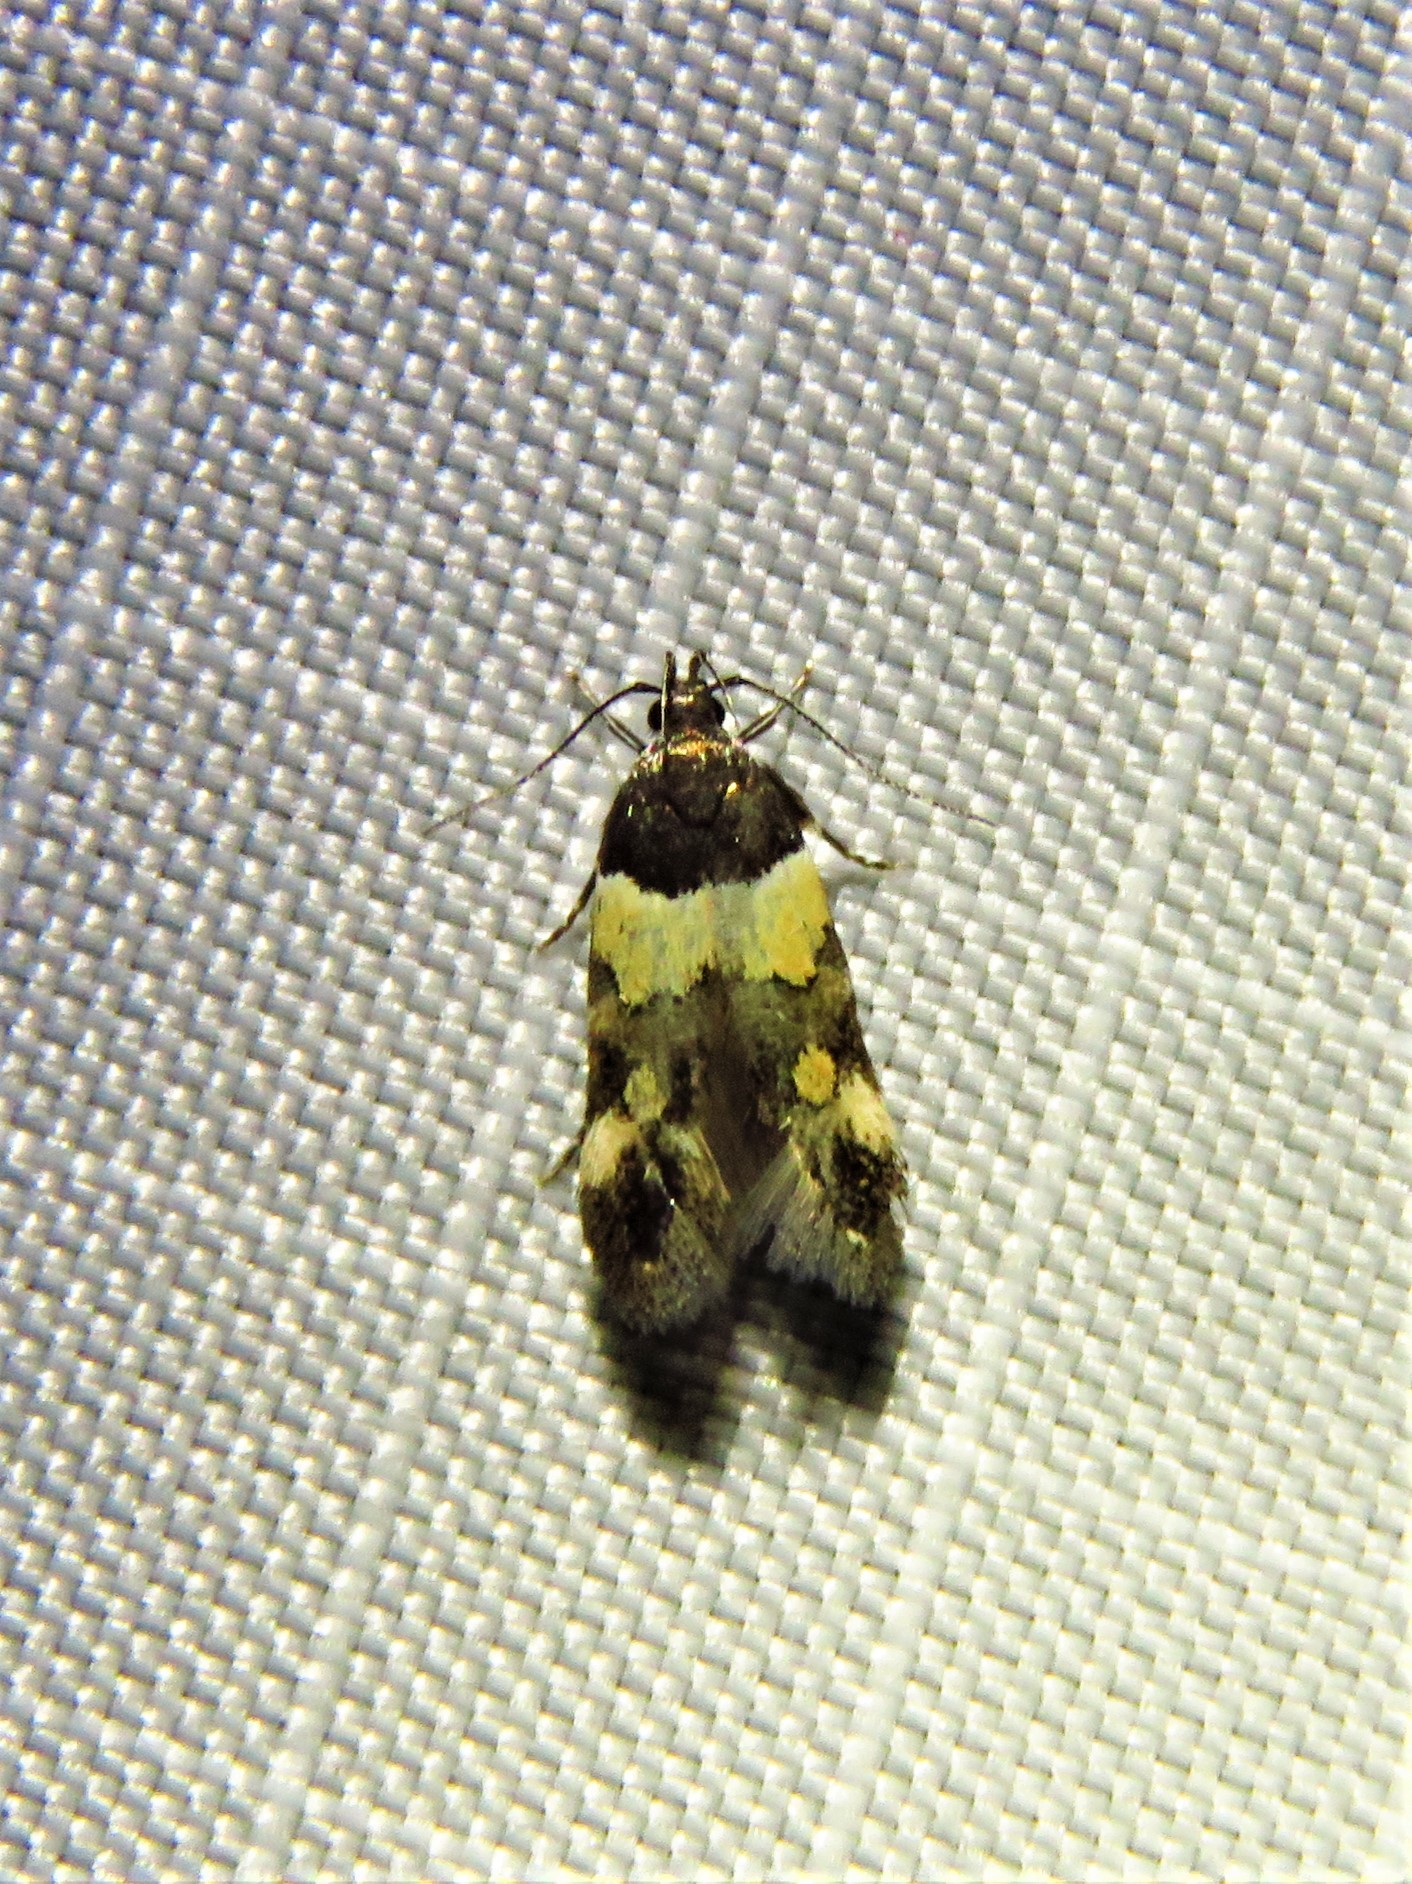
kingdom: Animalia
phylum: Arthropoda
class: Insecta
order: Lepidoptera
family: Momphidae
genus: Triclonella
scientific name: Triclonella determinatella
